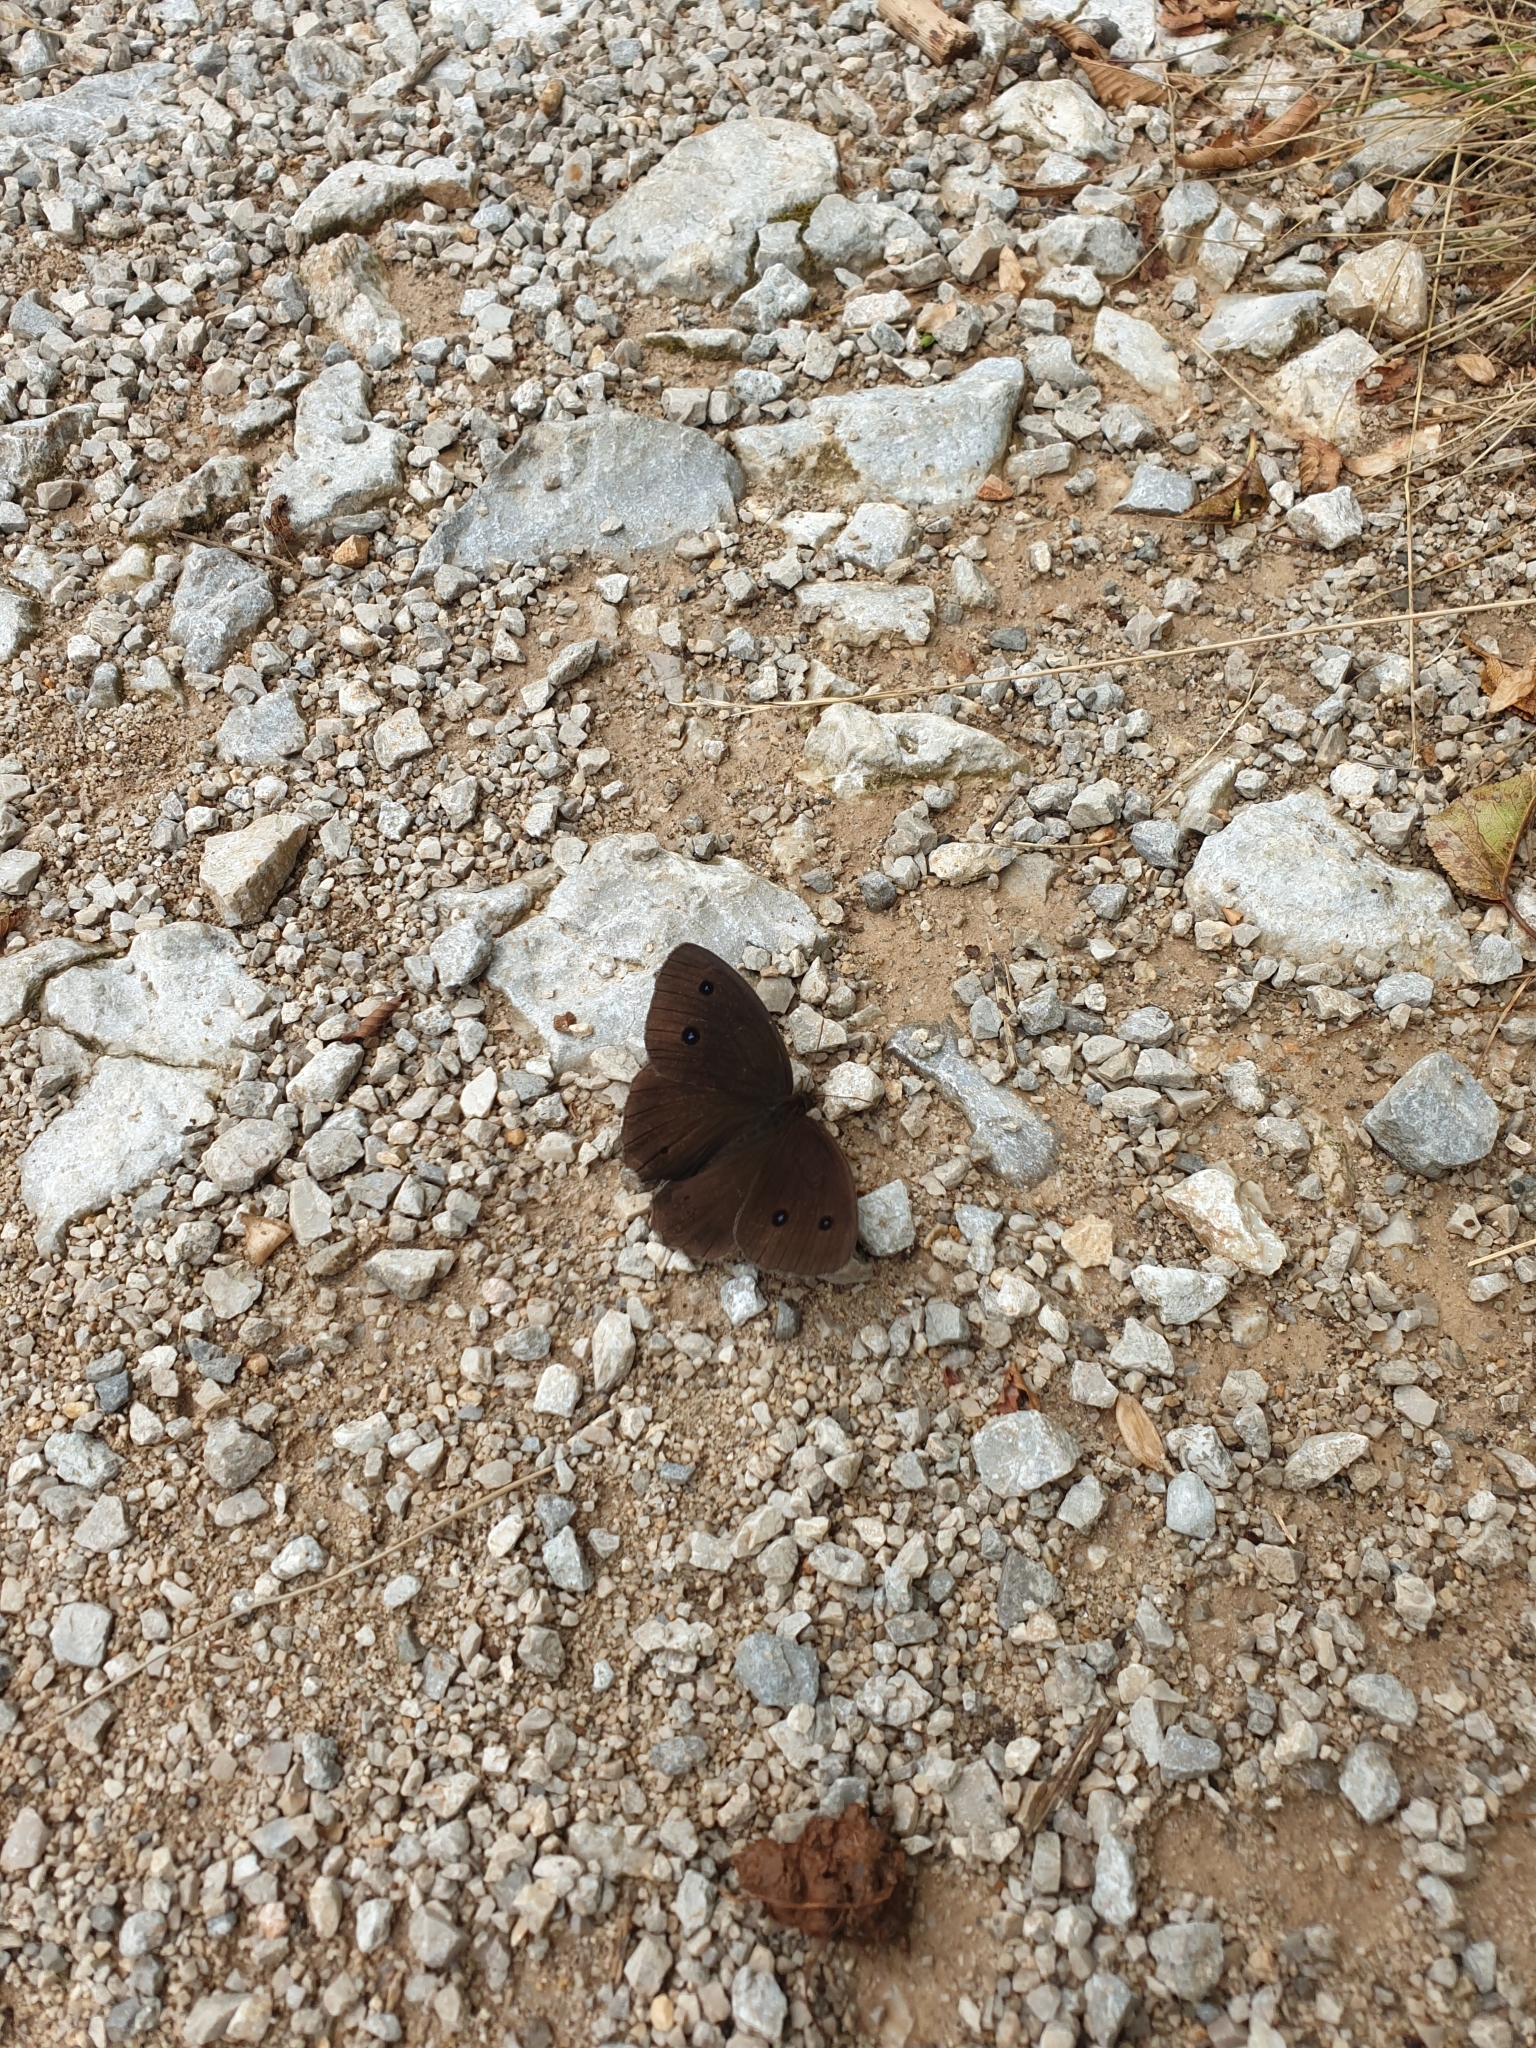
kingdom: Animalia
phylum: Arthropoda
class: Insecta
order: Lepidoptera
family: Nymphalidae
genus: Minois
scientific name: Minois dryas
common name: Dryad
